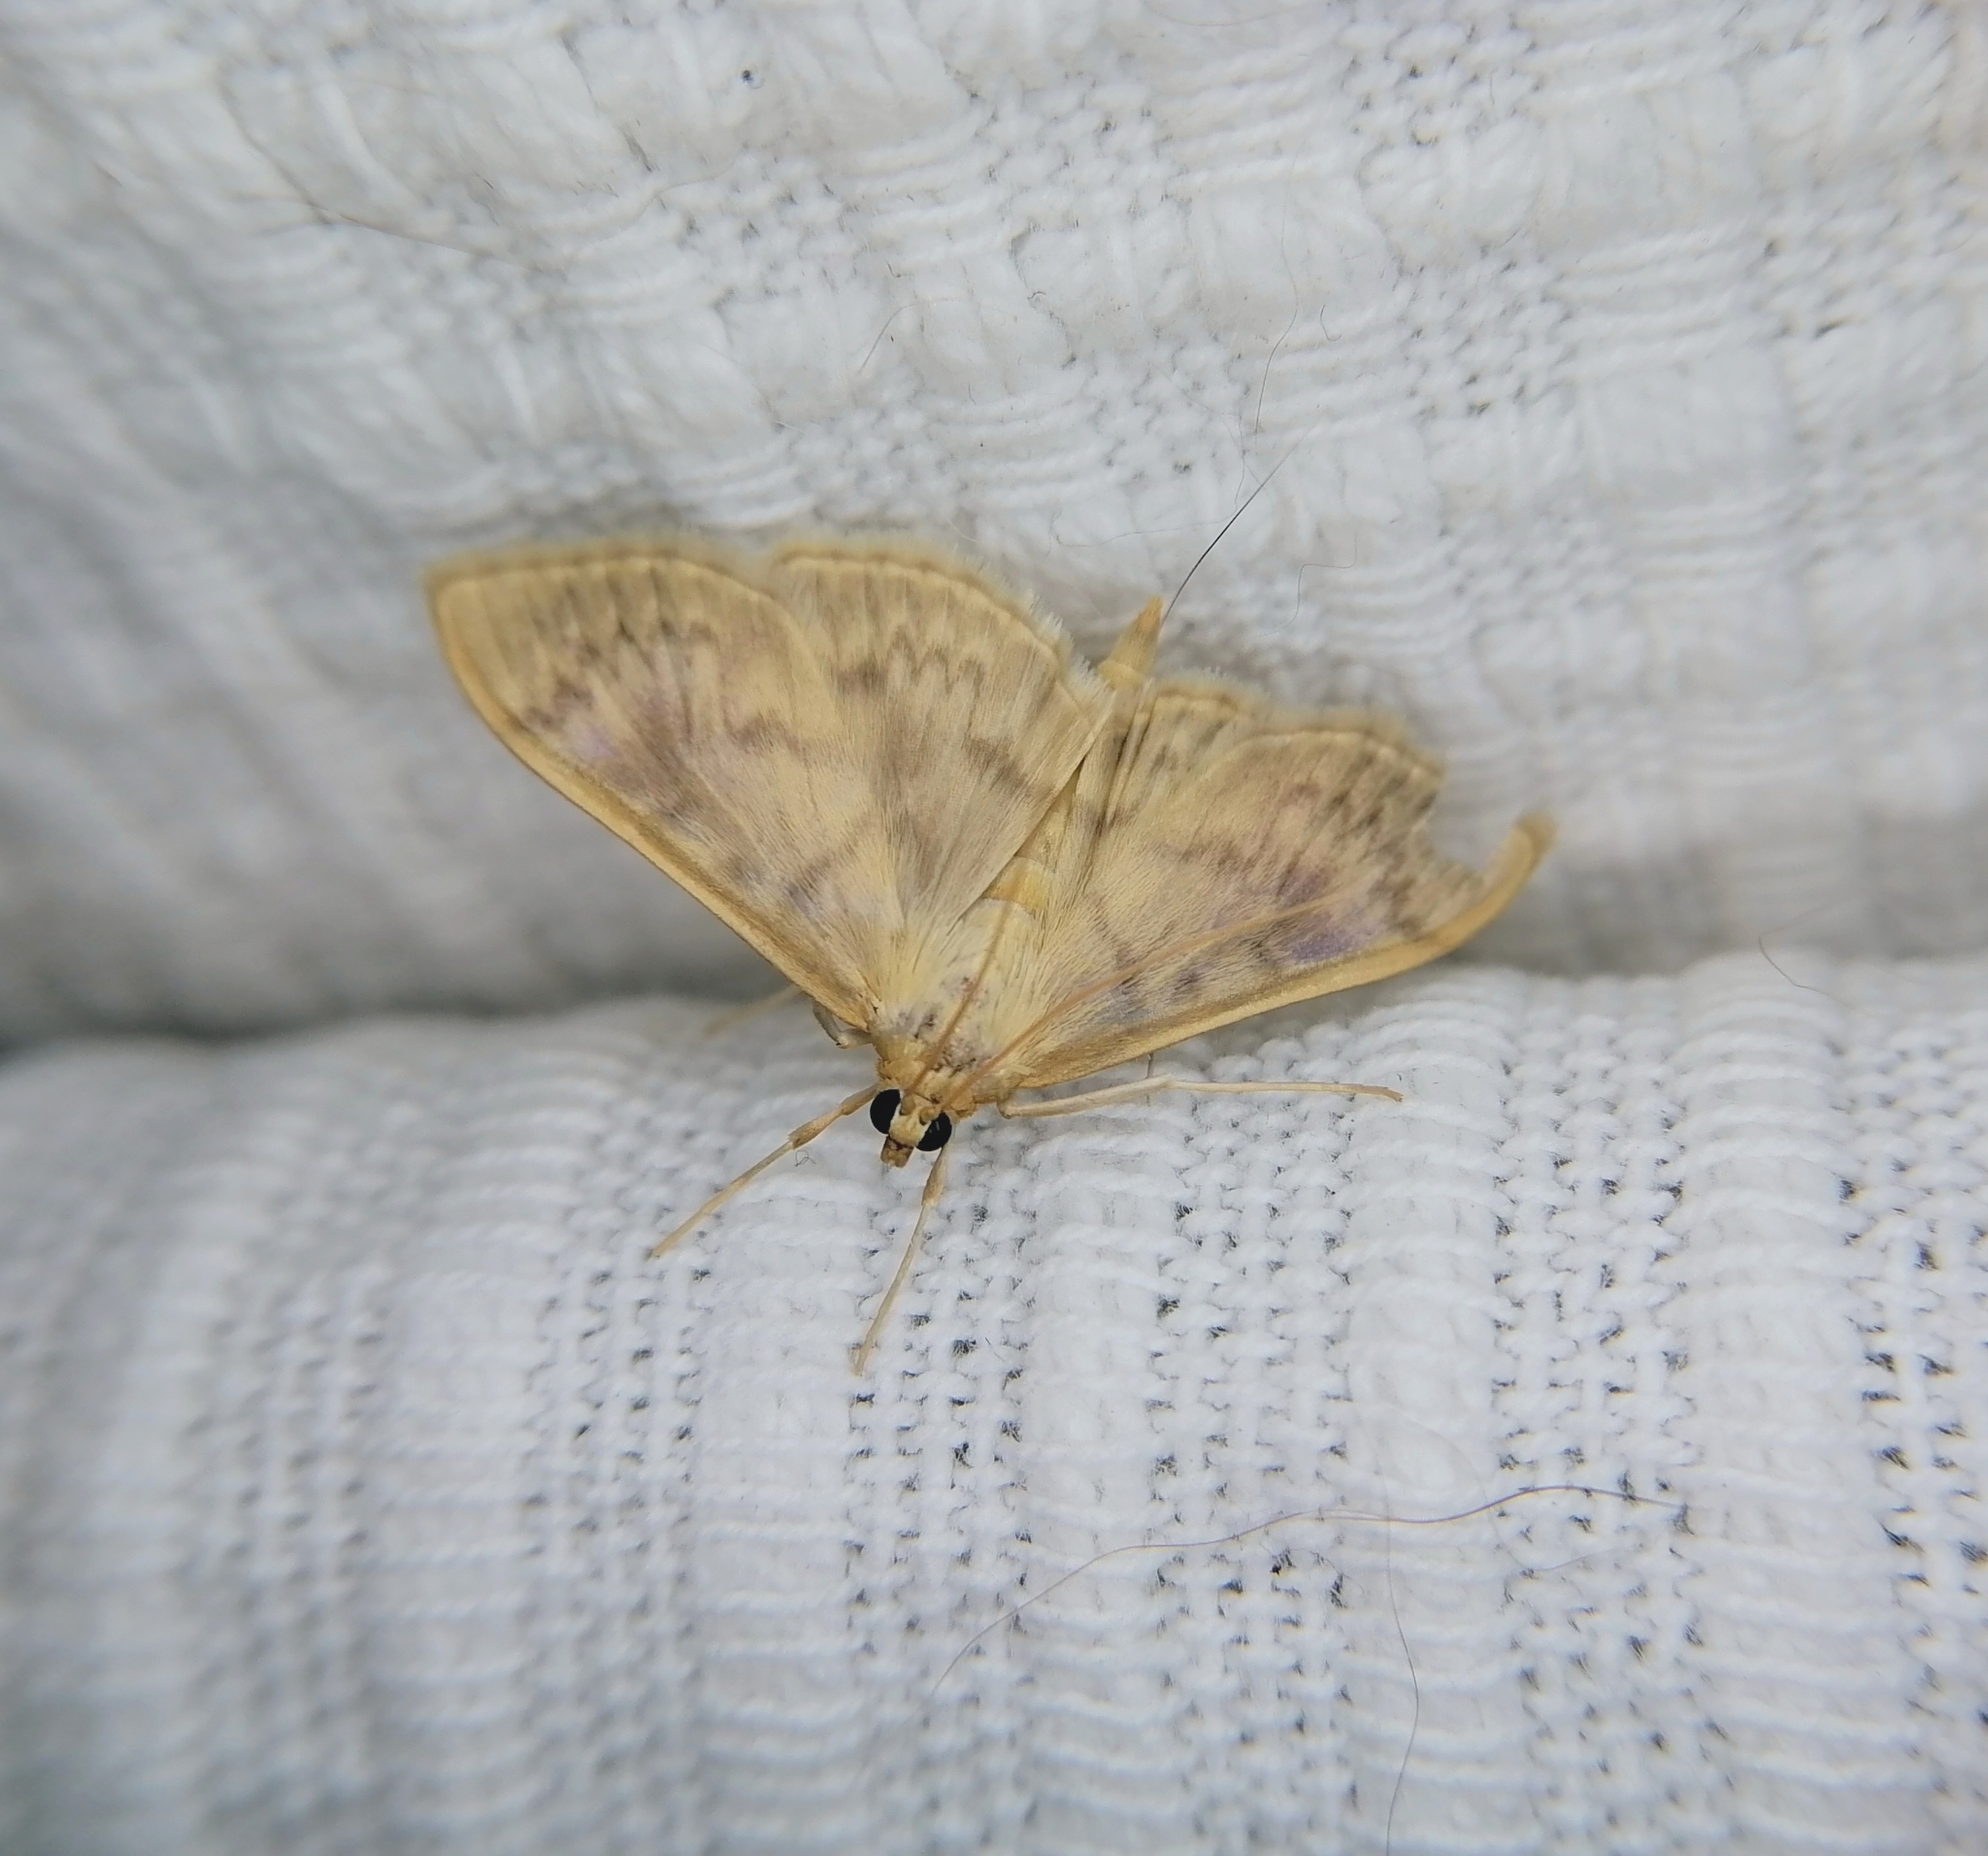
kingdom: Animalia
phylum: Arthropoda
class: Insecta
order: Lepidoptera
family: Crambidae
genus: Patania
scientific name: Patania ruralis
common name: Mother of pearl
